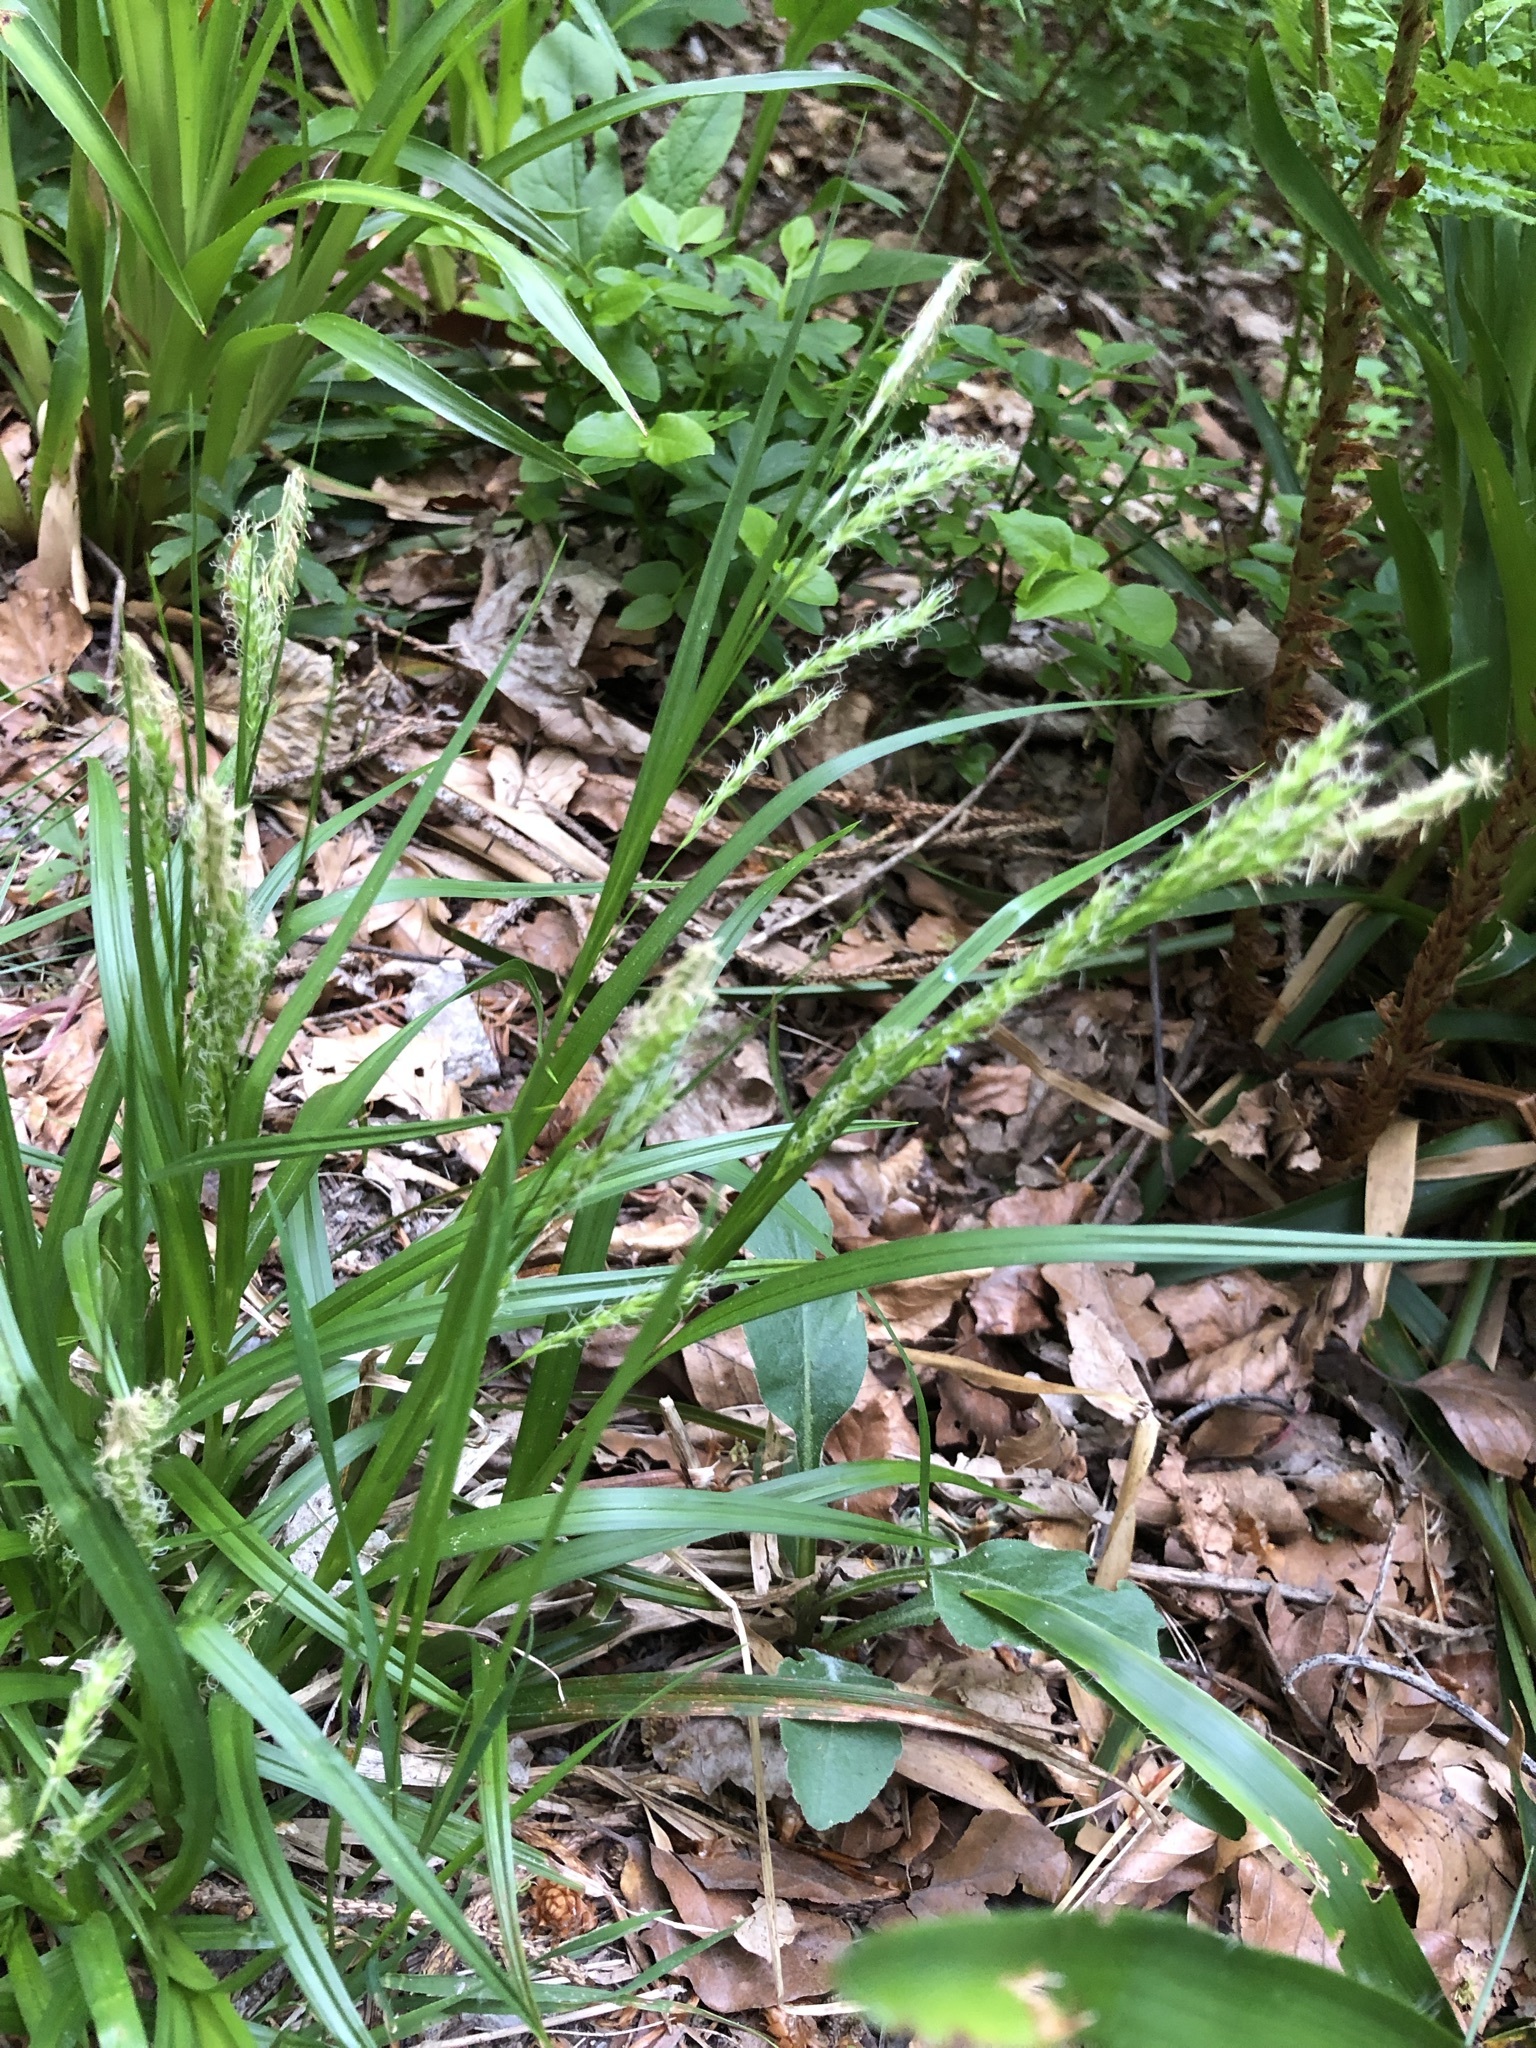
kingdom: Plantae
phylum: Tracheophyta
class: Liliopsida
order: Poales
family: Cyperaceae
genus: Carex
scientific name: Carex sylvatica
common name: Wood-sedge
